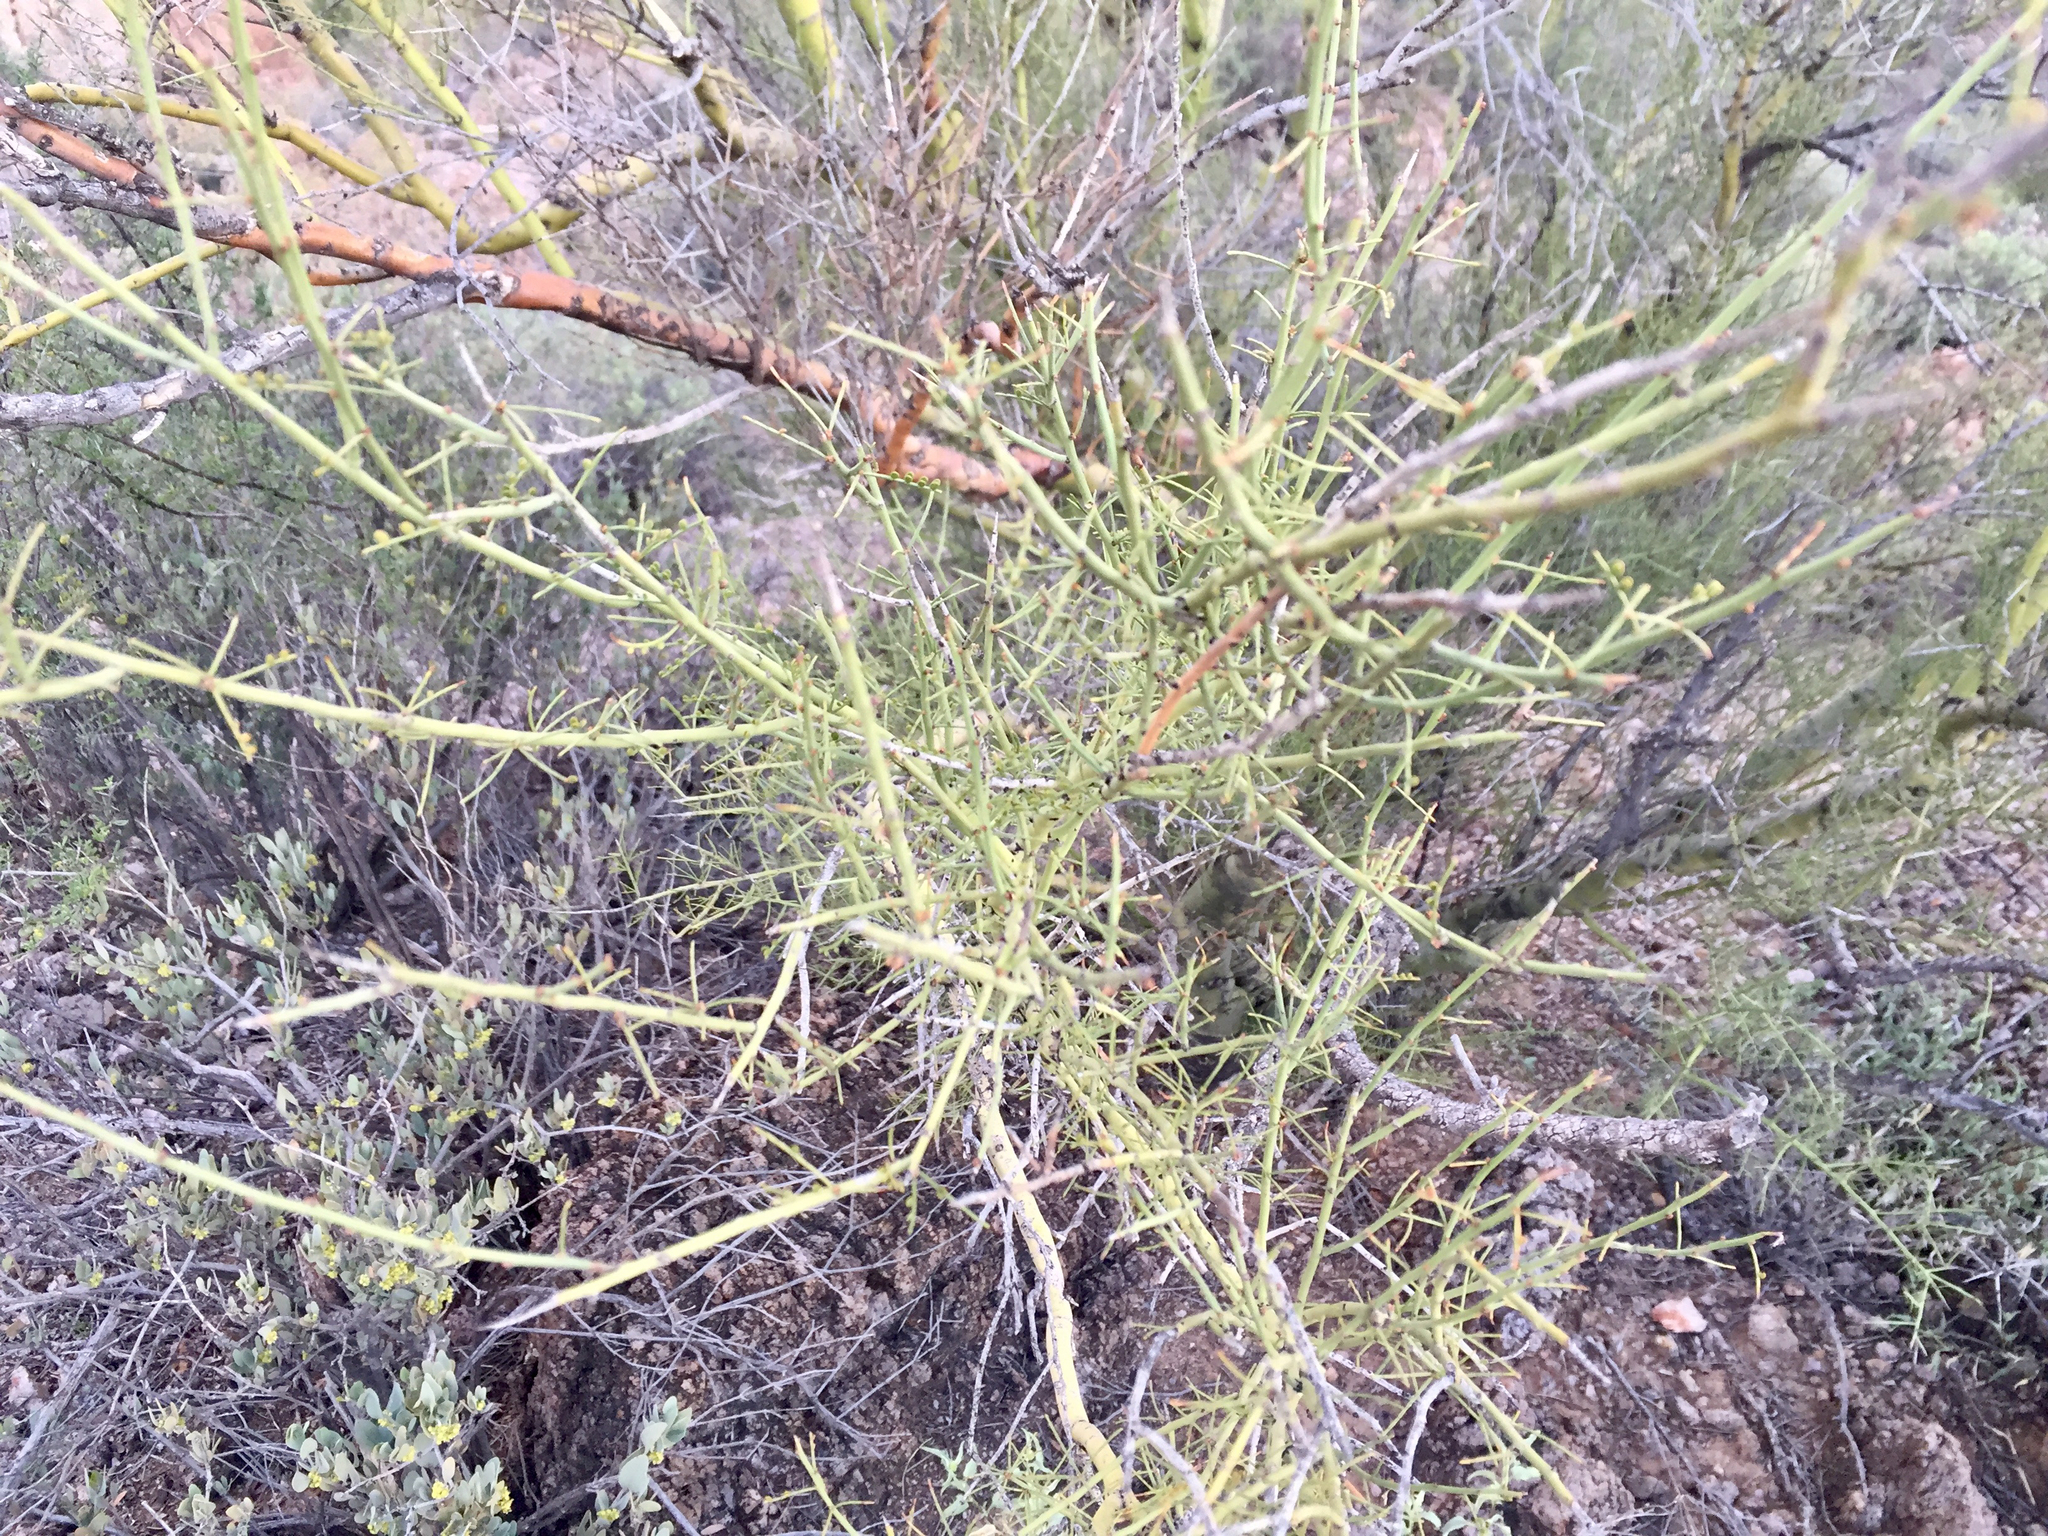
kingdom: Plantae
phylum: Tracheophyta
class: Magnoliopsida
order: Fabales
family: Fabaceae
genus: Parkinsonia
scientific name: Parkinsonia microphylla
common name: Yellow paloverde
